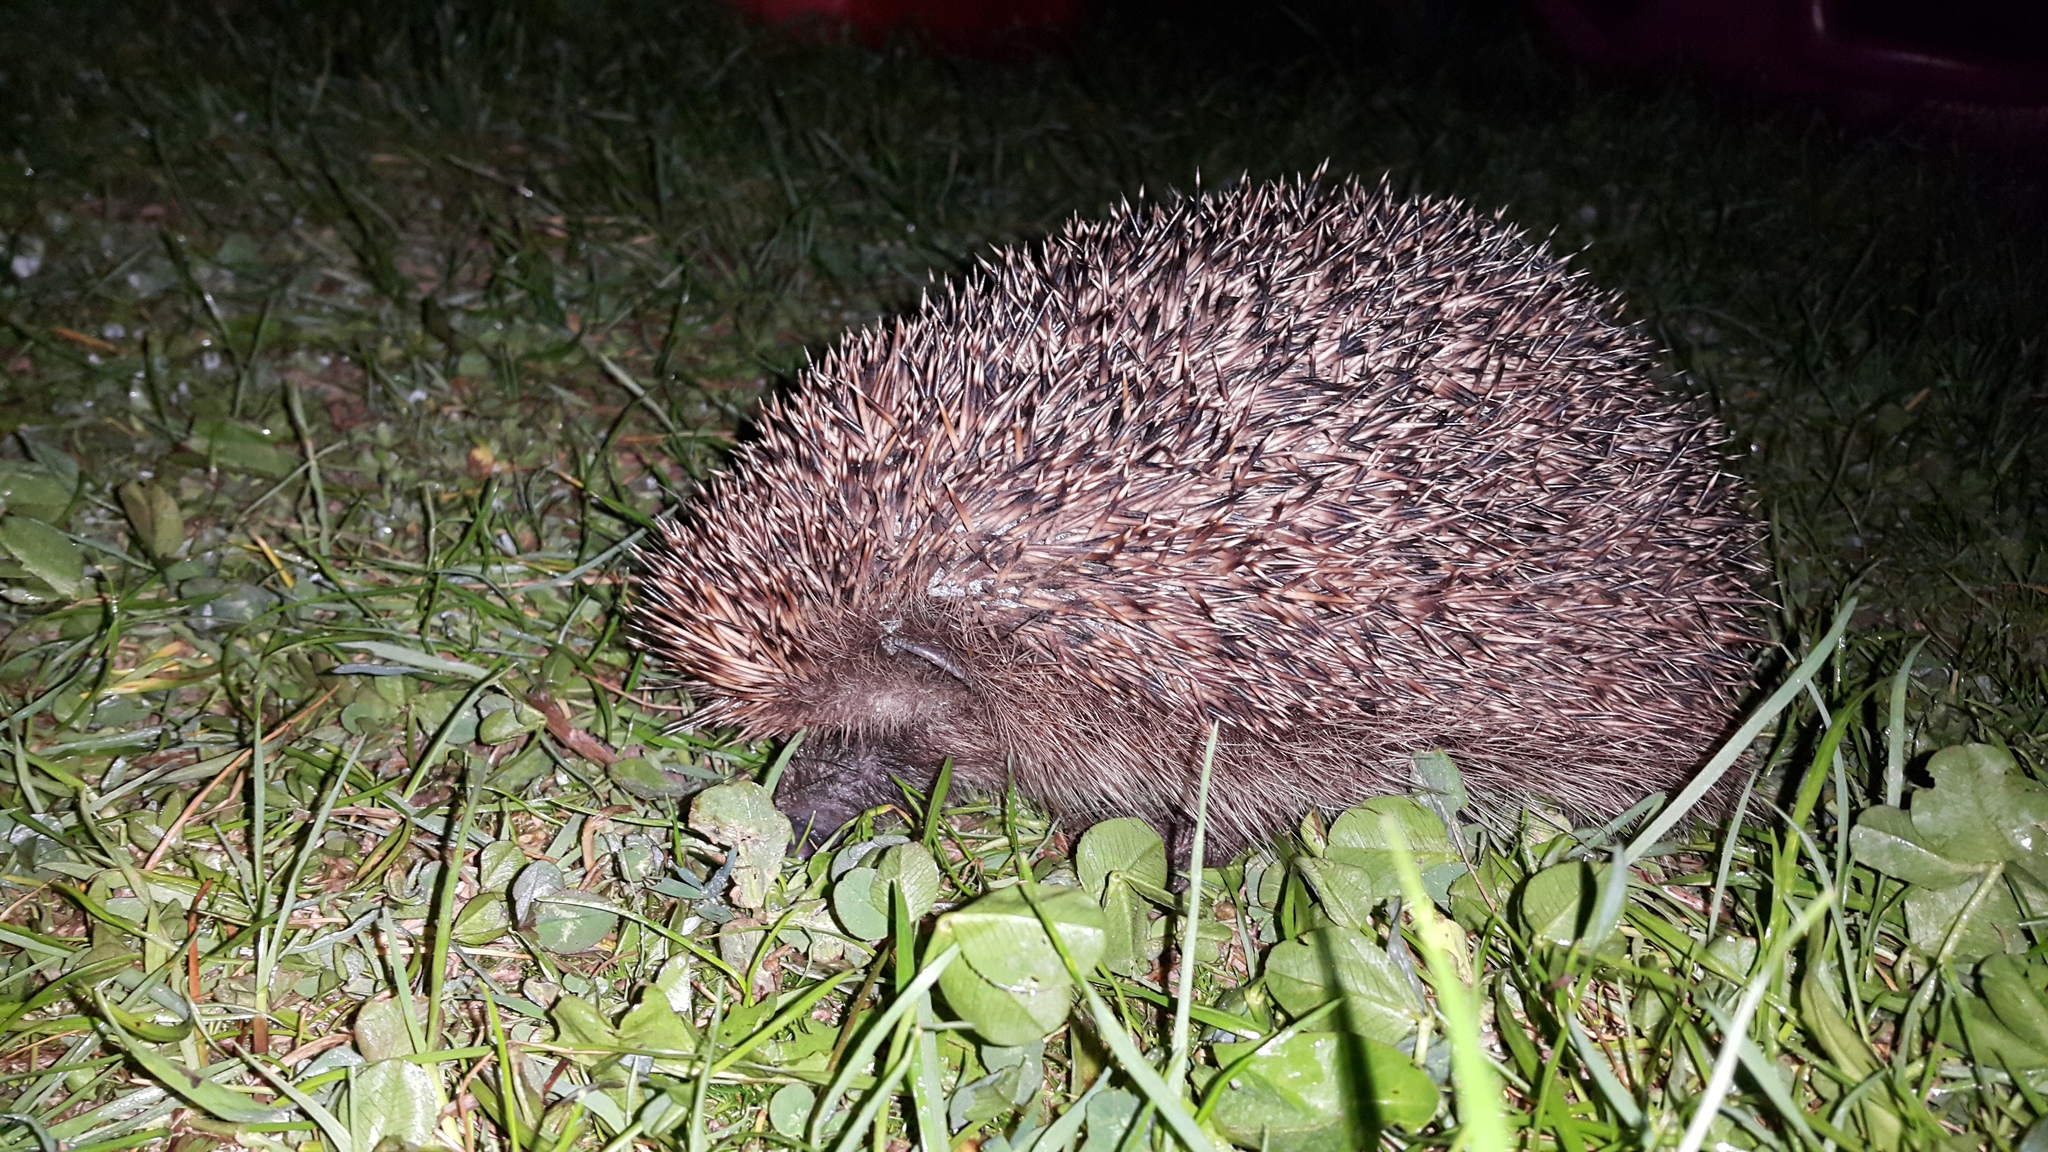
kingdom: Animalia
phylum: Chordata
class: Mammalia
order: Erinaceomorpha
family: Erinaceidae
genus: Erinaceus
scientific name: Erinaceus europaeus
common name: West european hedgehog
